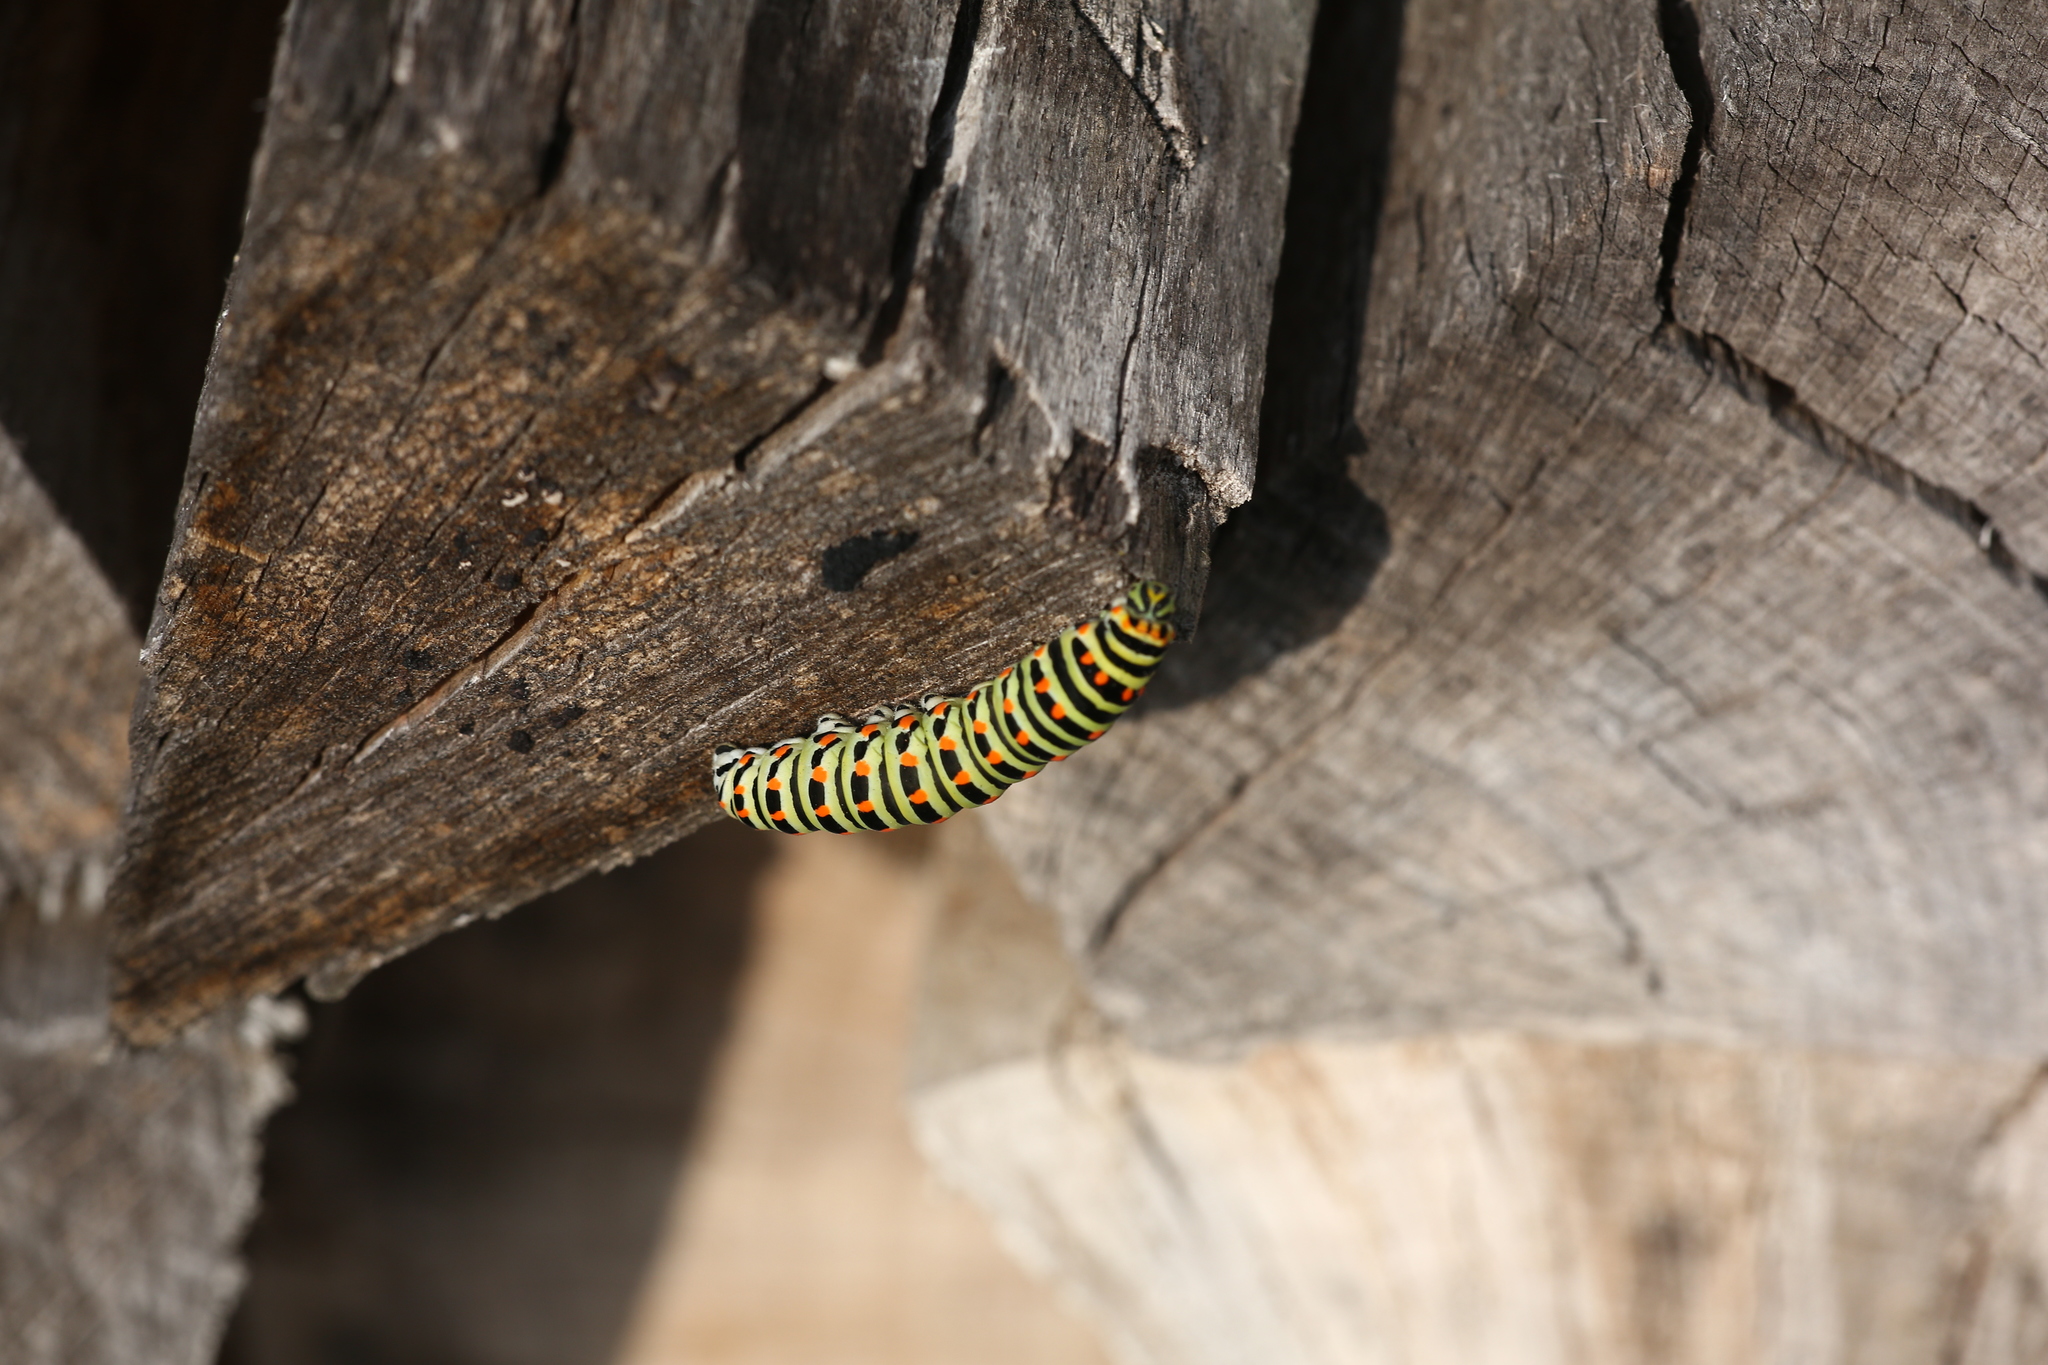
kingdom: Animalia
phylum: Arthropoda
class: Insecta
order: Lepidoptera
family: Papilionidae
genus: Papilio
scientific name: Papilio machaon
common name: Swallowtail
